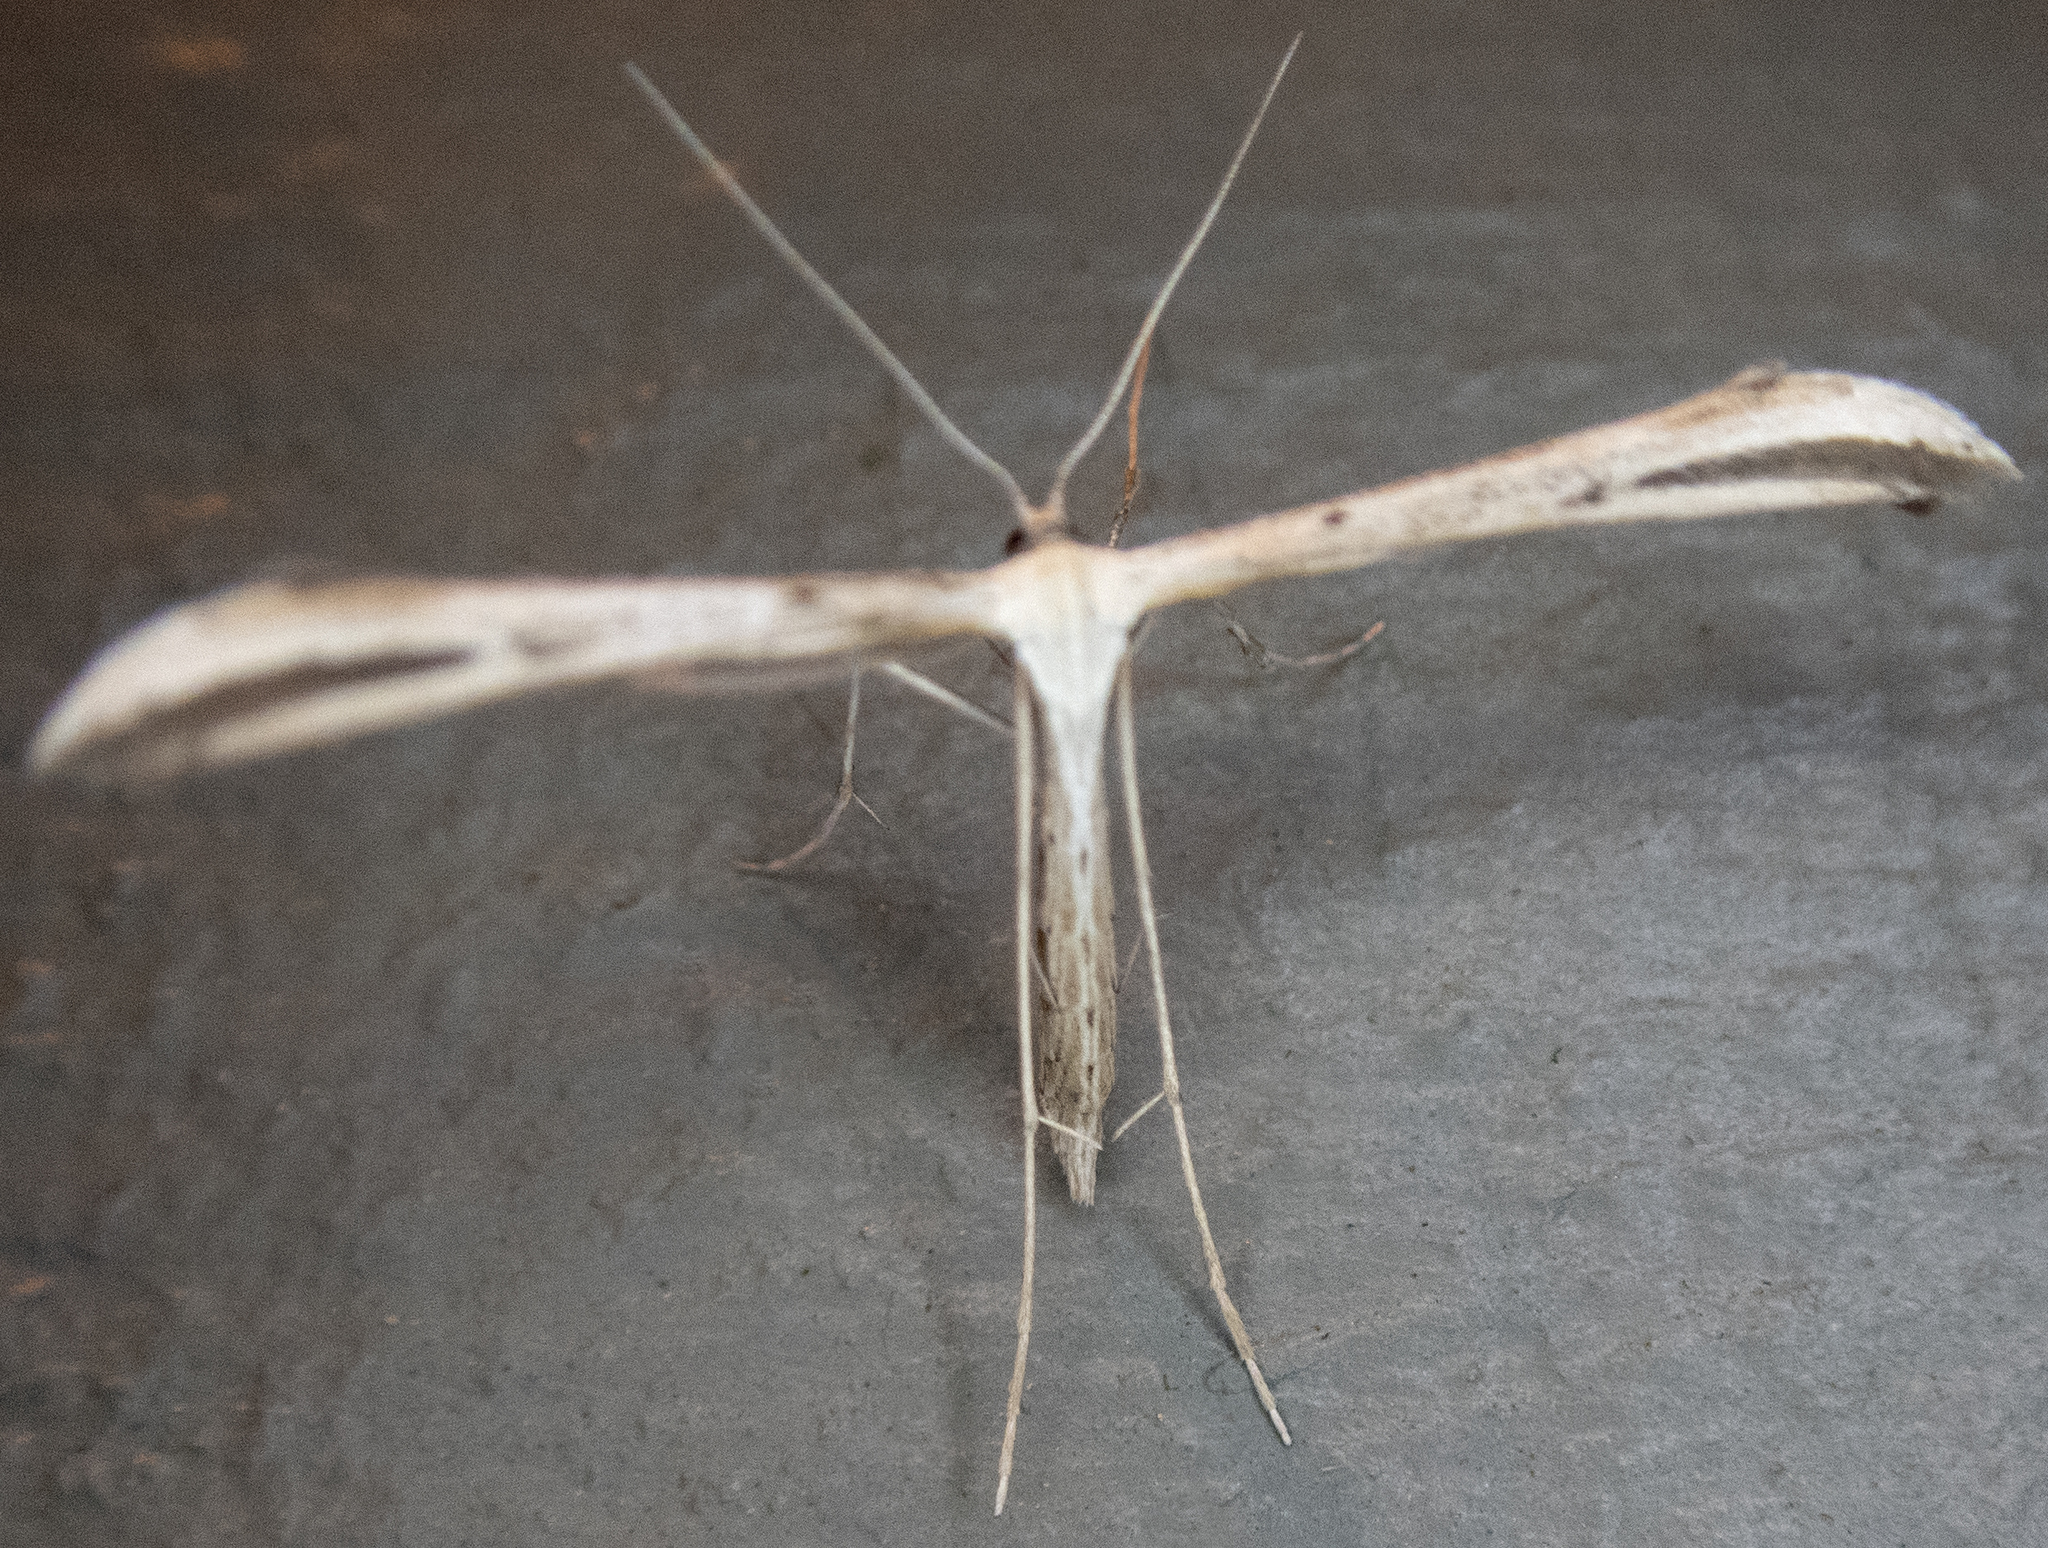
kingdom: Animalia
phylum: Arthropoda
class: Insecta
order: Lepidoptera
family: Pterophoridae
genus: Emmelina
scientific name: Emmelina monodactyla
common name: Common plume
